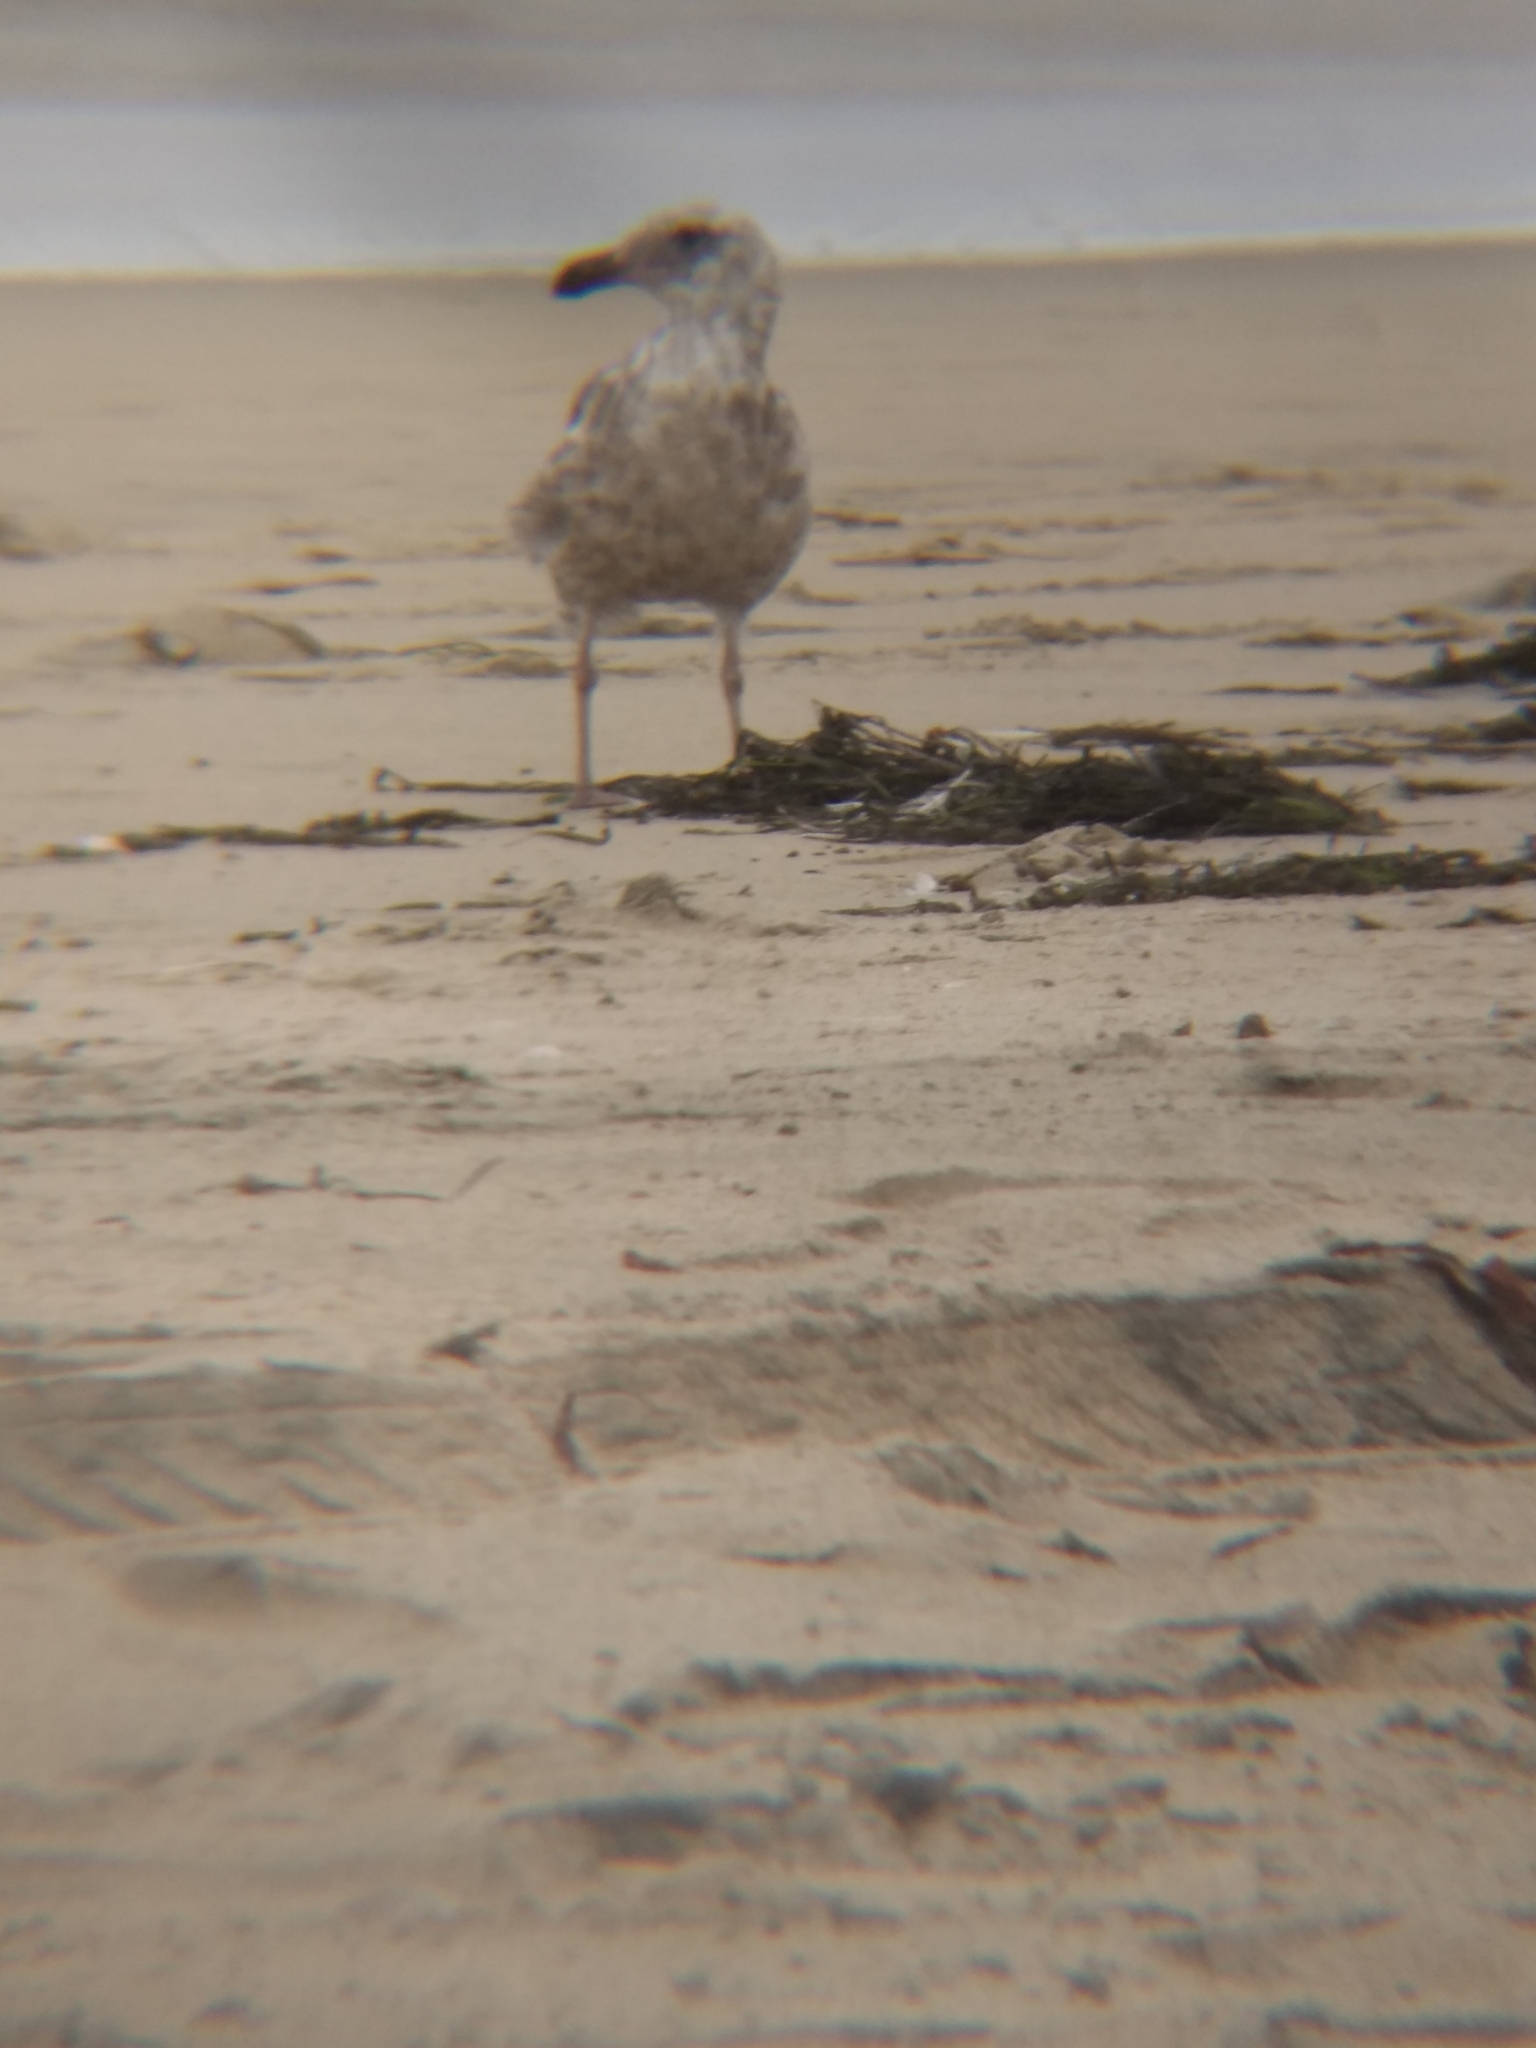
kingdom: Animalia
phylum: Chordata
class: Aves
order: Charadriiformes
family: Laridae
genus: Larus
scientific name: Larus occidentalis
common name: Western gull
